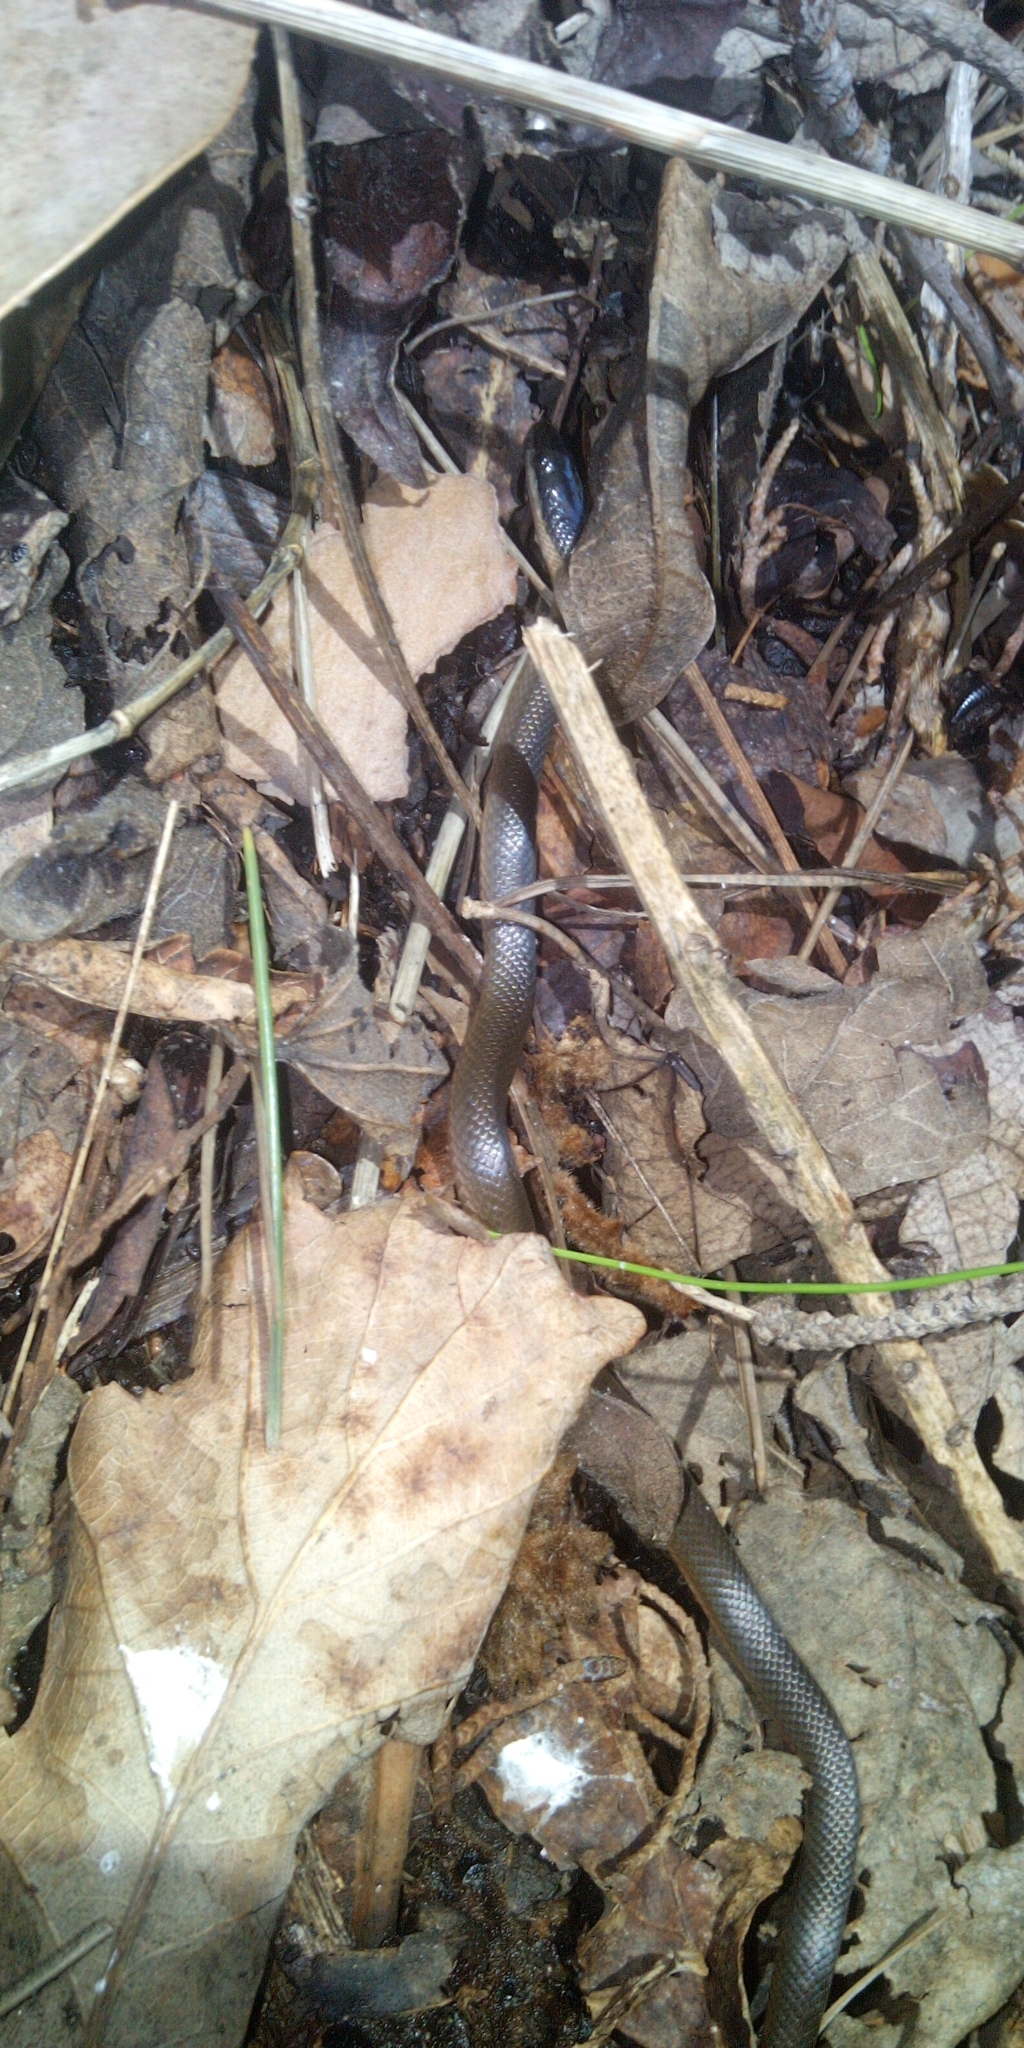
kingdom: Animalia
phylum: Chordata
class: Squamata
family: Lamprophiidae
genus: Lycodonomorphus
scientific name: Lycodonomorphus rufulus
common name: Brown water snake
